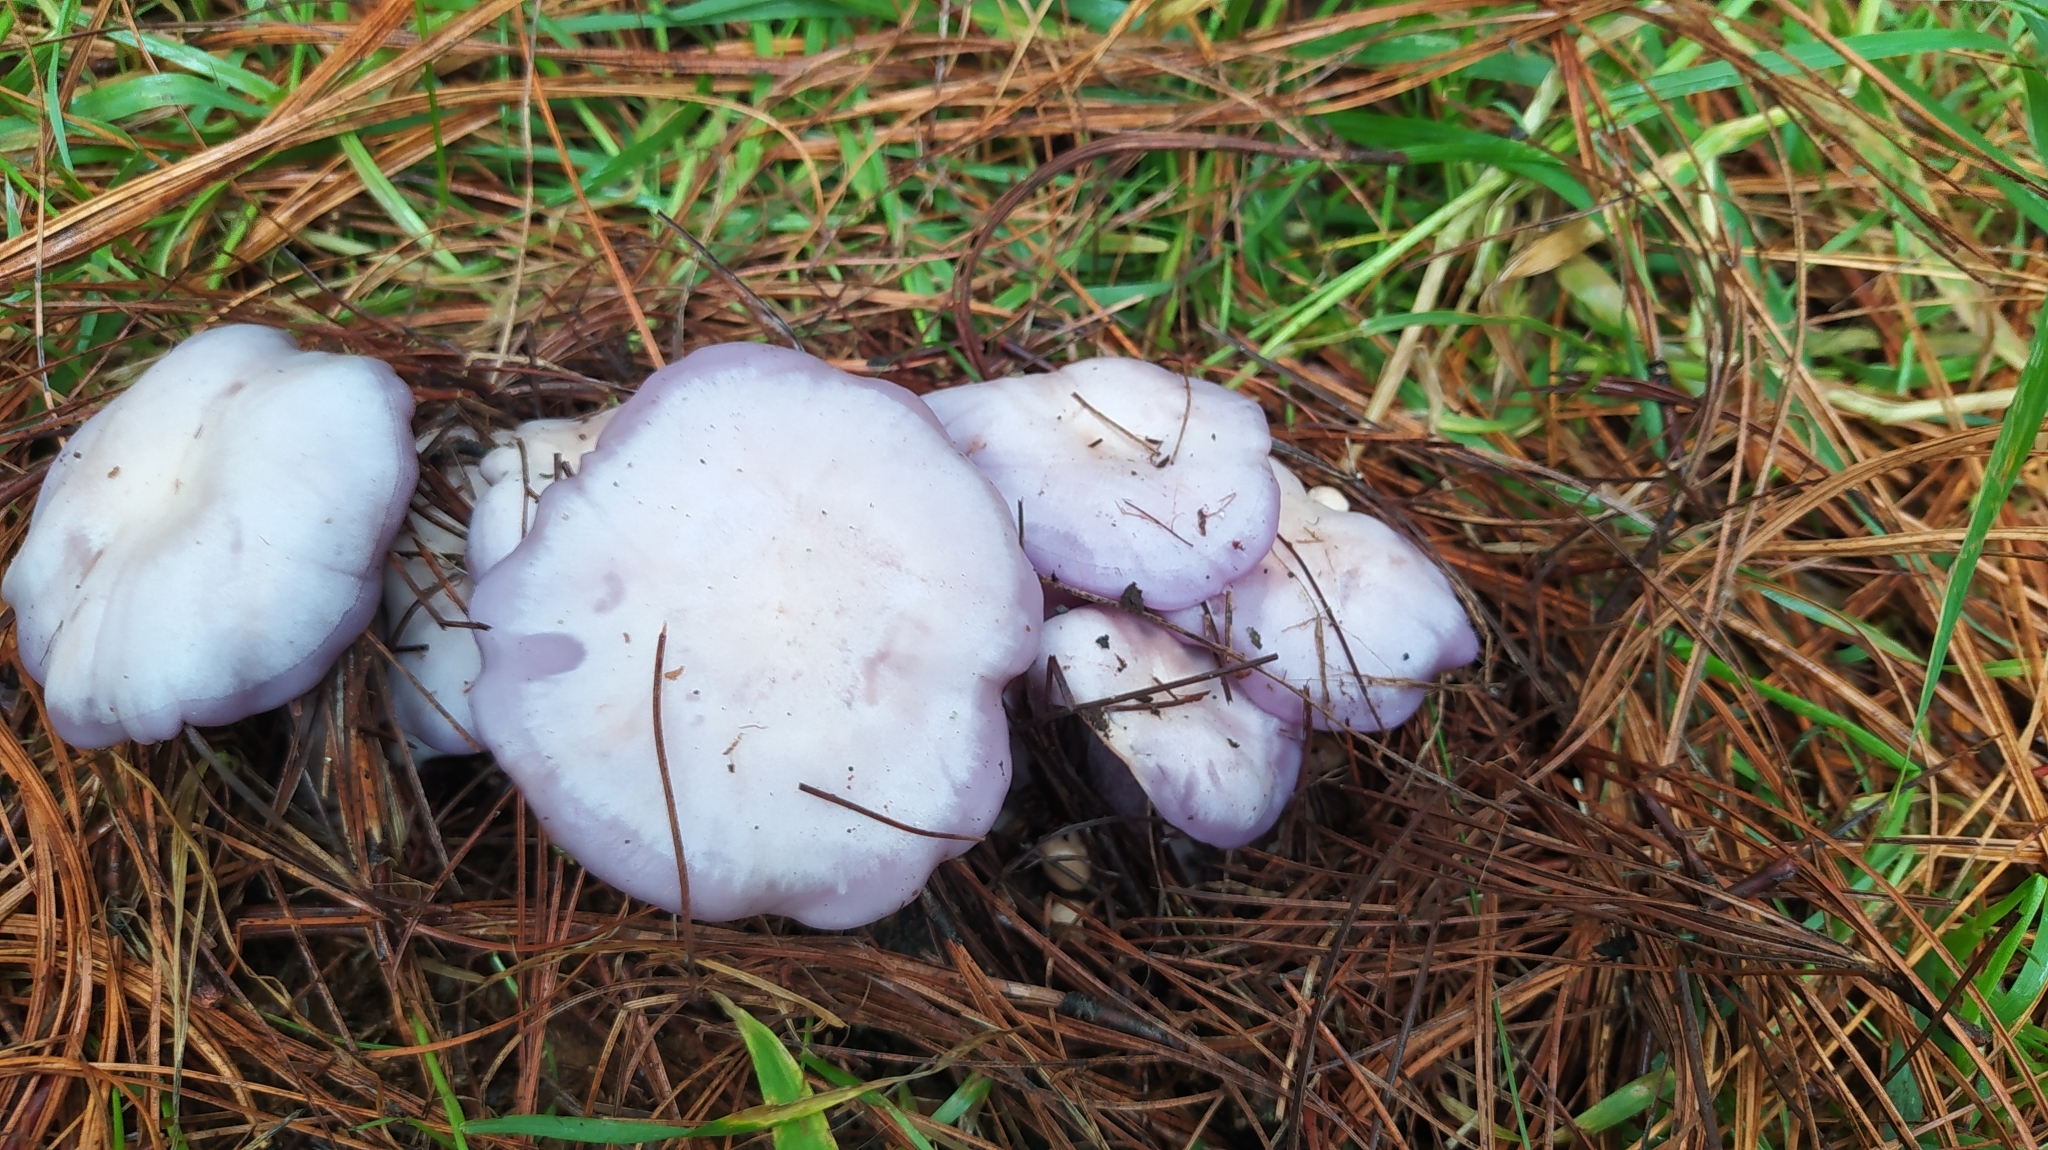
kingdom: Fungi
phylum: Basidiomycota
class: Agaricomycetes
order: Agaricales
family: Tricholomataceae
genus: Collybia
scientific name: Collybia
